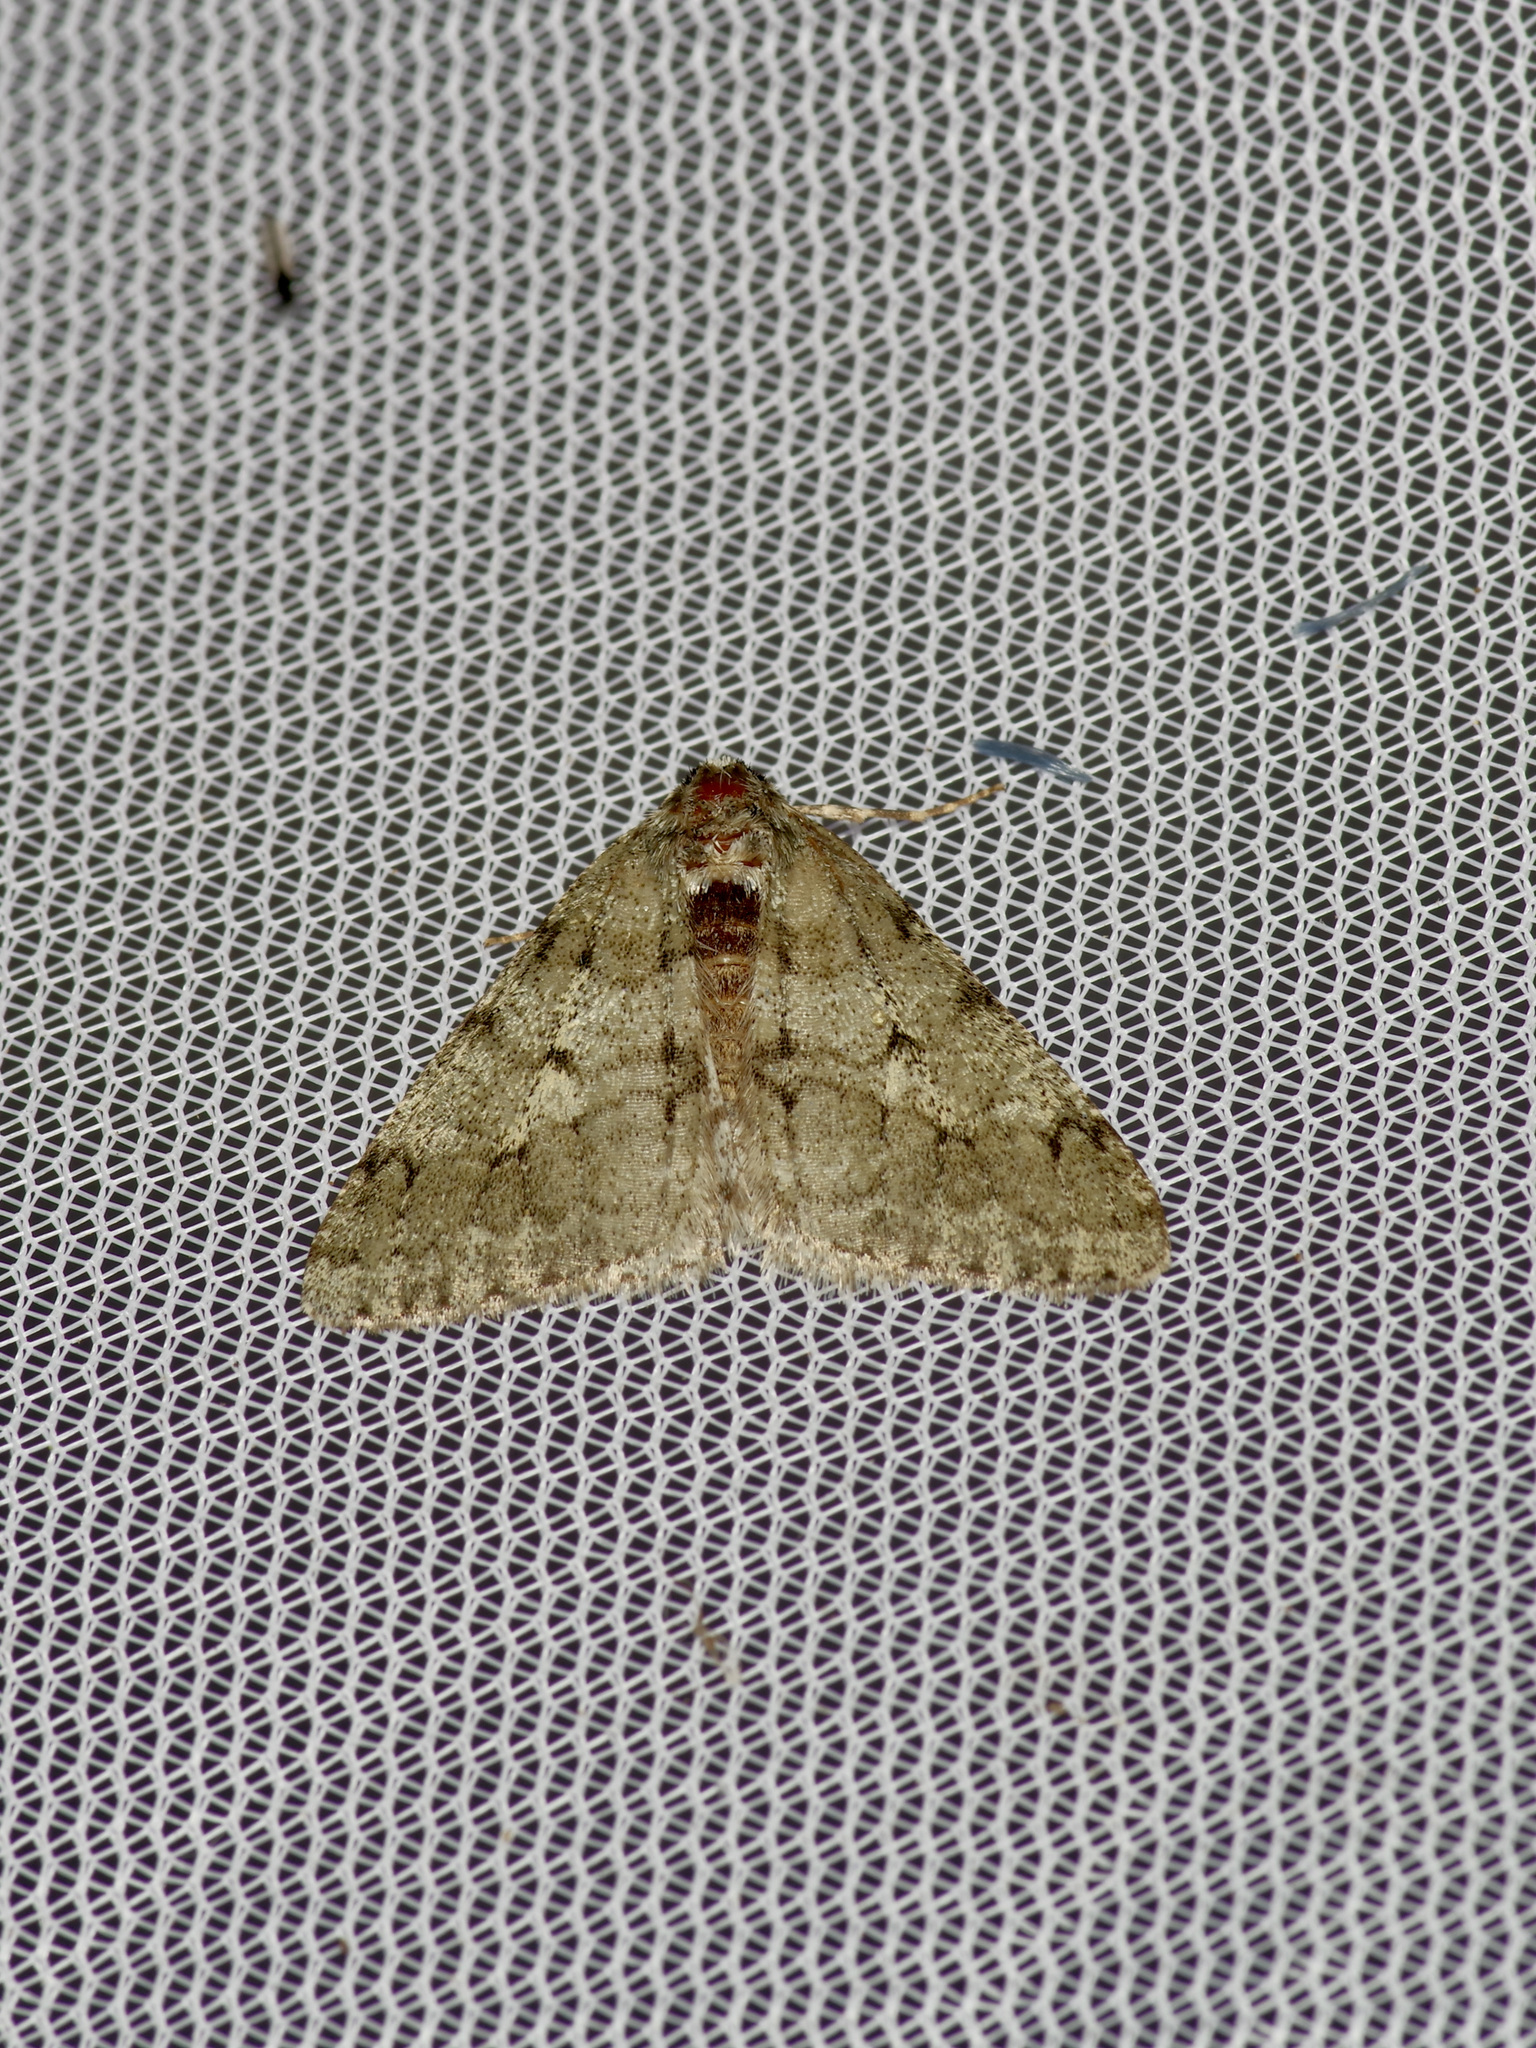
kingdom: Animalia
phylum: Arthropoda
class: Insecta
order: Lepidoptera
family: Geometridae
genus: Phigalia
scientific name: Phigalia strigataria
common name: Small phigalia
